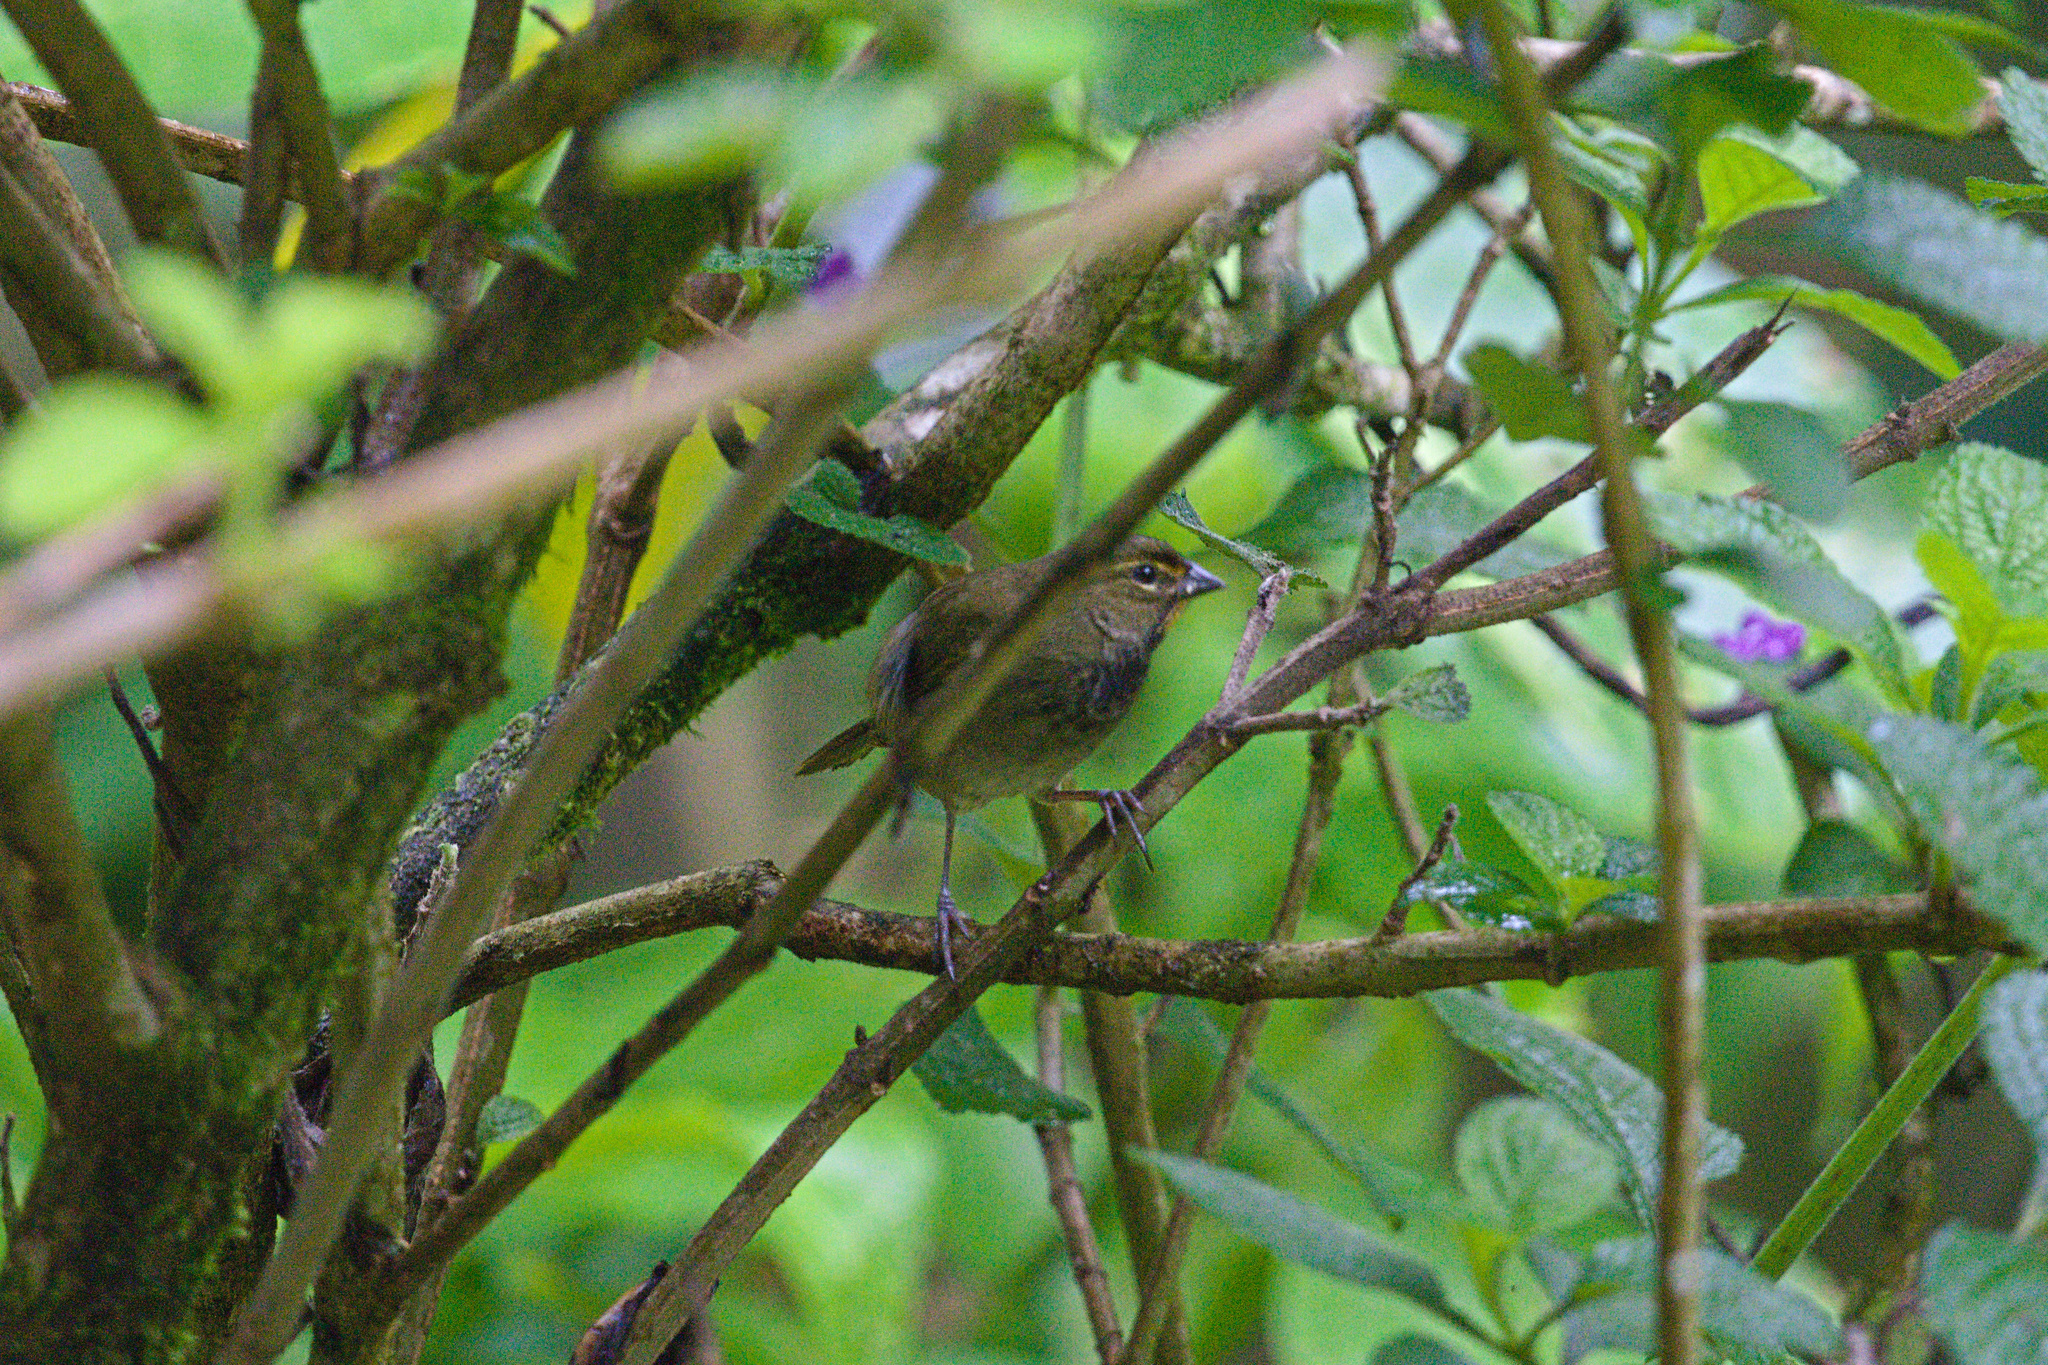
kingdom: Animalia
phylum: Chordata
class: Aves
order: Passeriformes
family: Thraupidae
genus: Tiaris
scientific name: Tiaris olivaceus
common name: Yellow-faced grassquit
